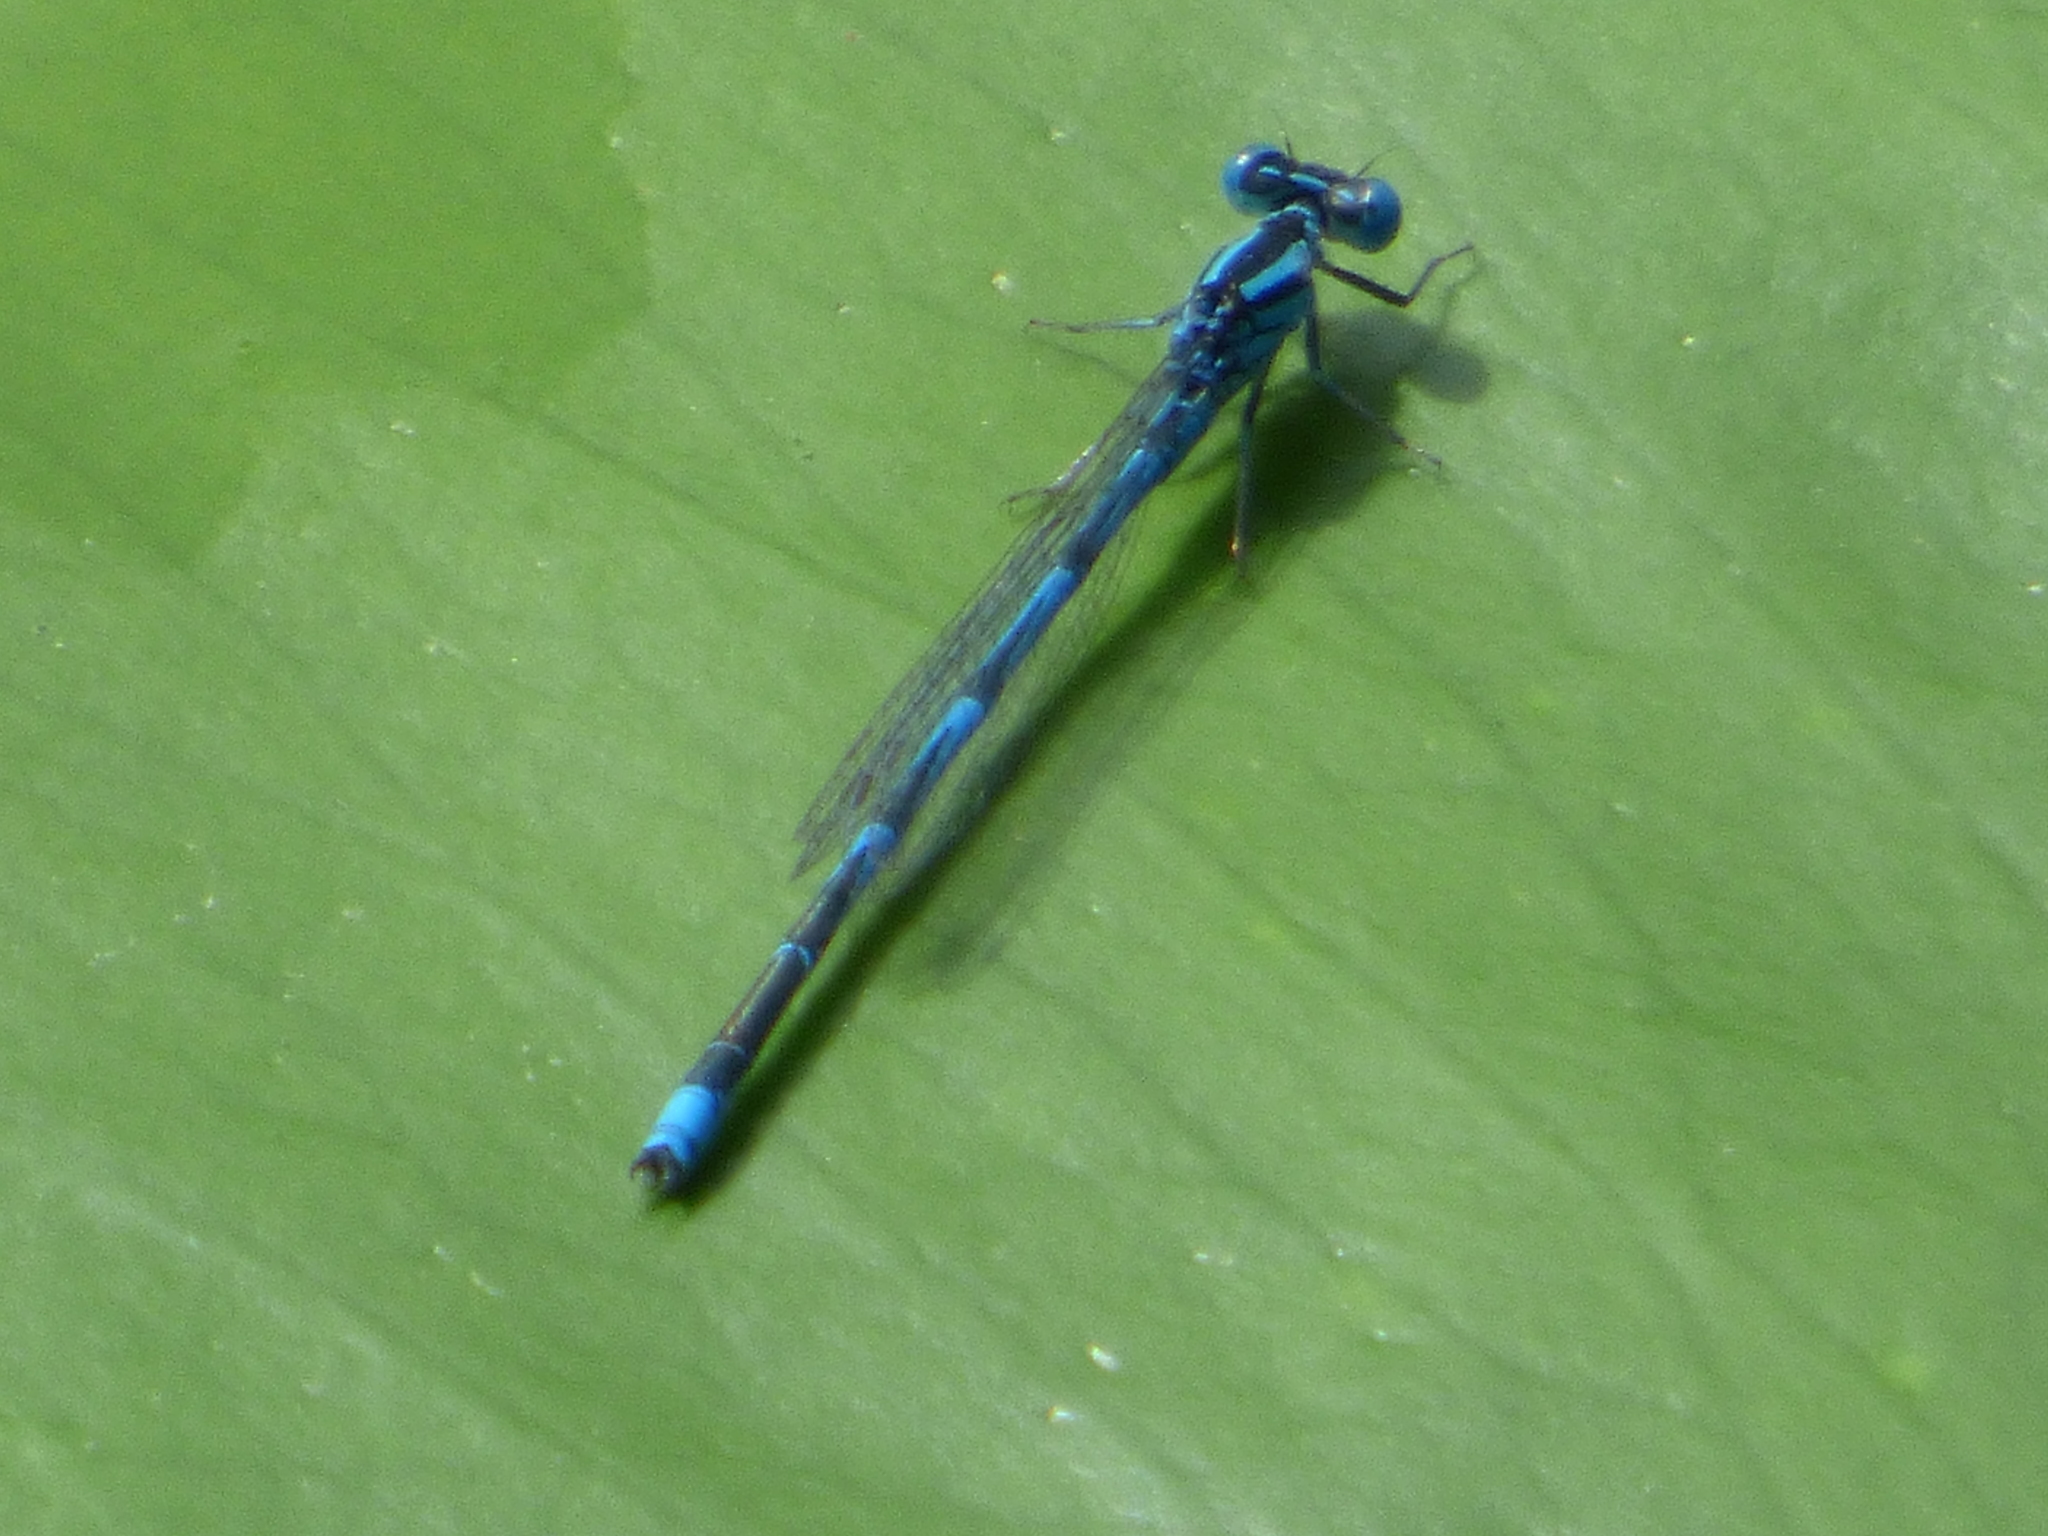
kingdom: Animalia
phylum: Arthropoda
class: Insecta
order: Odonata
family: Coenagrionidae
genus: Erythromma
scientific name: Erythromma lindenii
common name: Blue-eye
